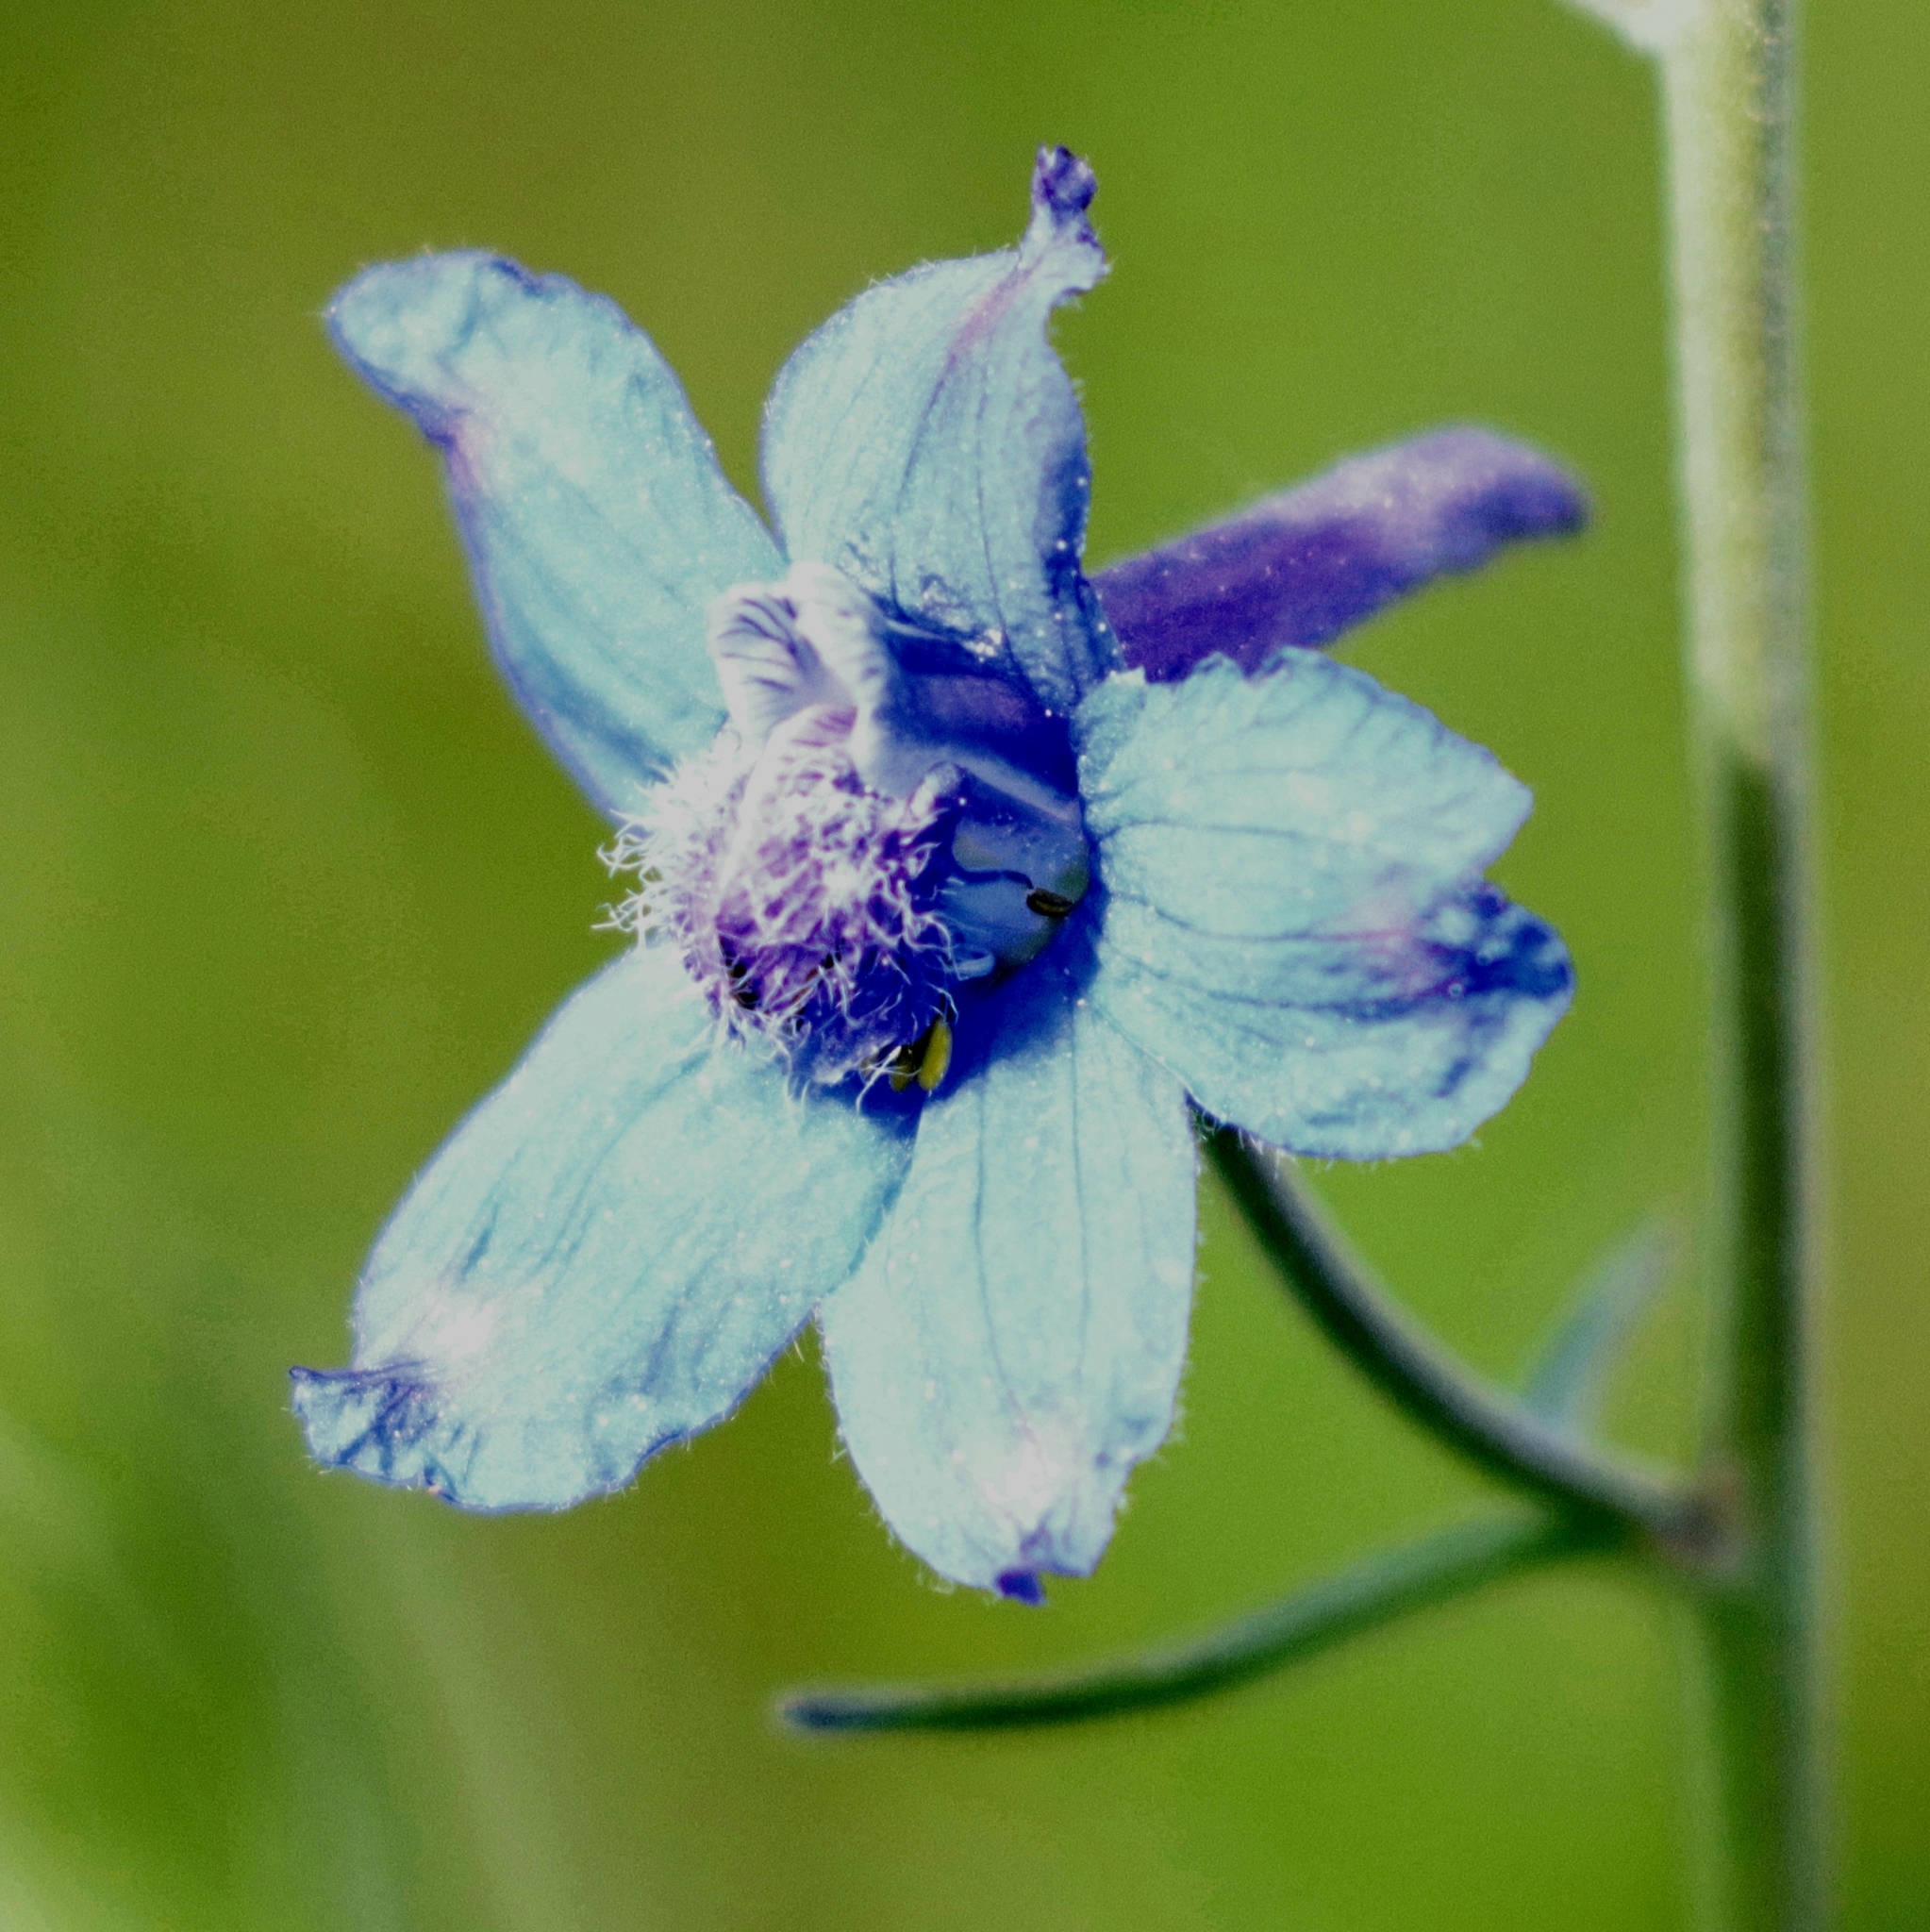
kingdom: Plantae
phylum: Tracheophyta
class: Magnoliopsida
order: Ranunculales
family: Ranunculaceae
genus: Delphinium
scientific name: Delphinium nuttallianum
